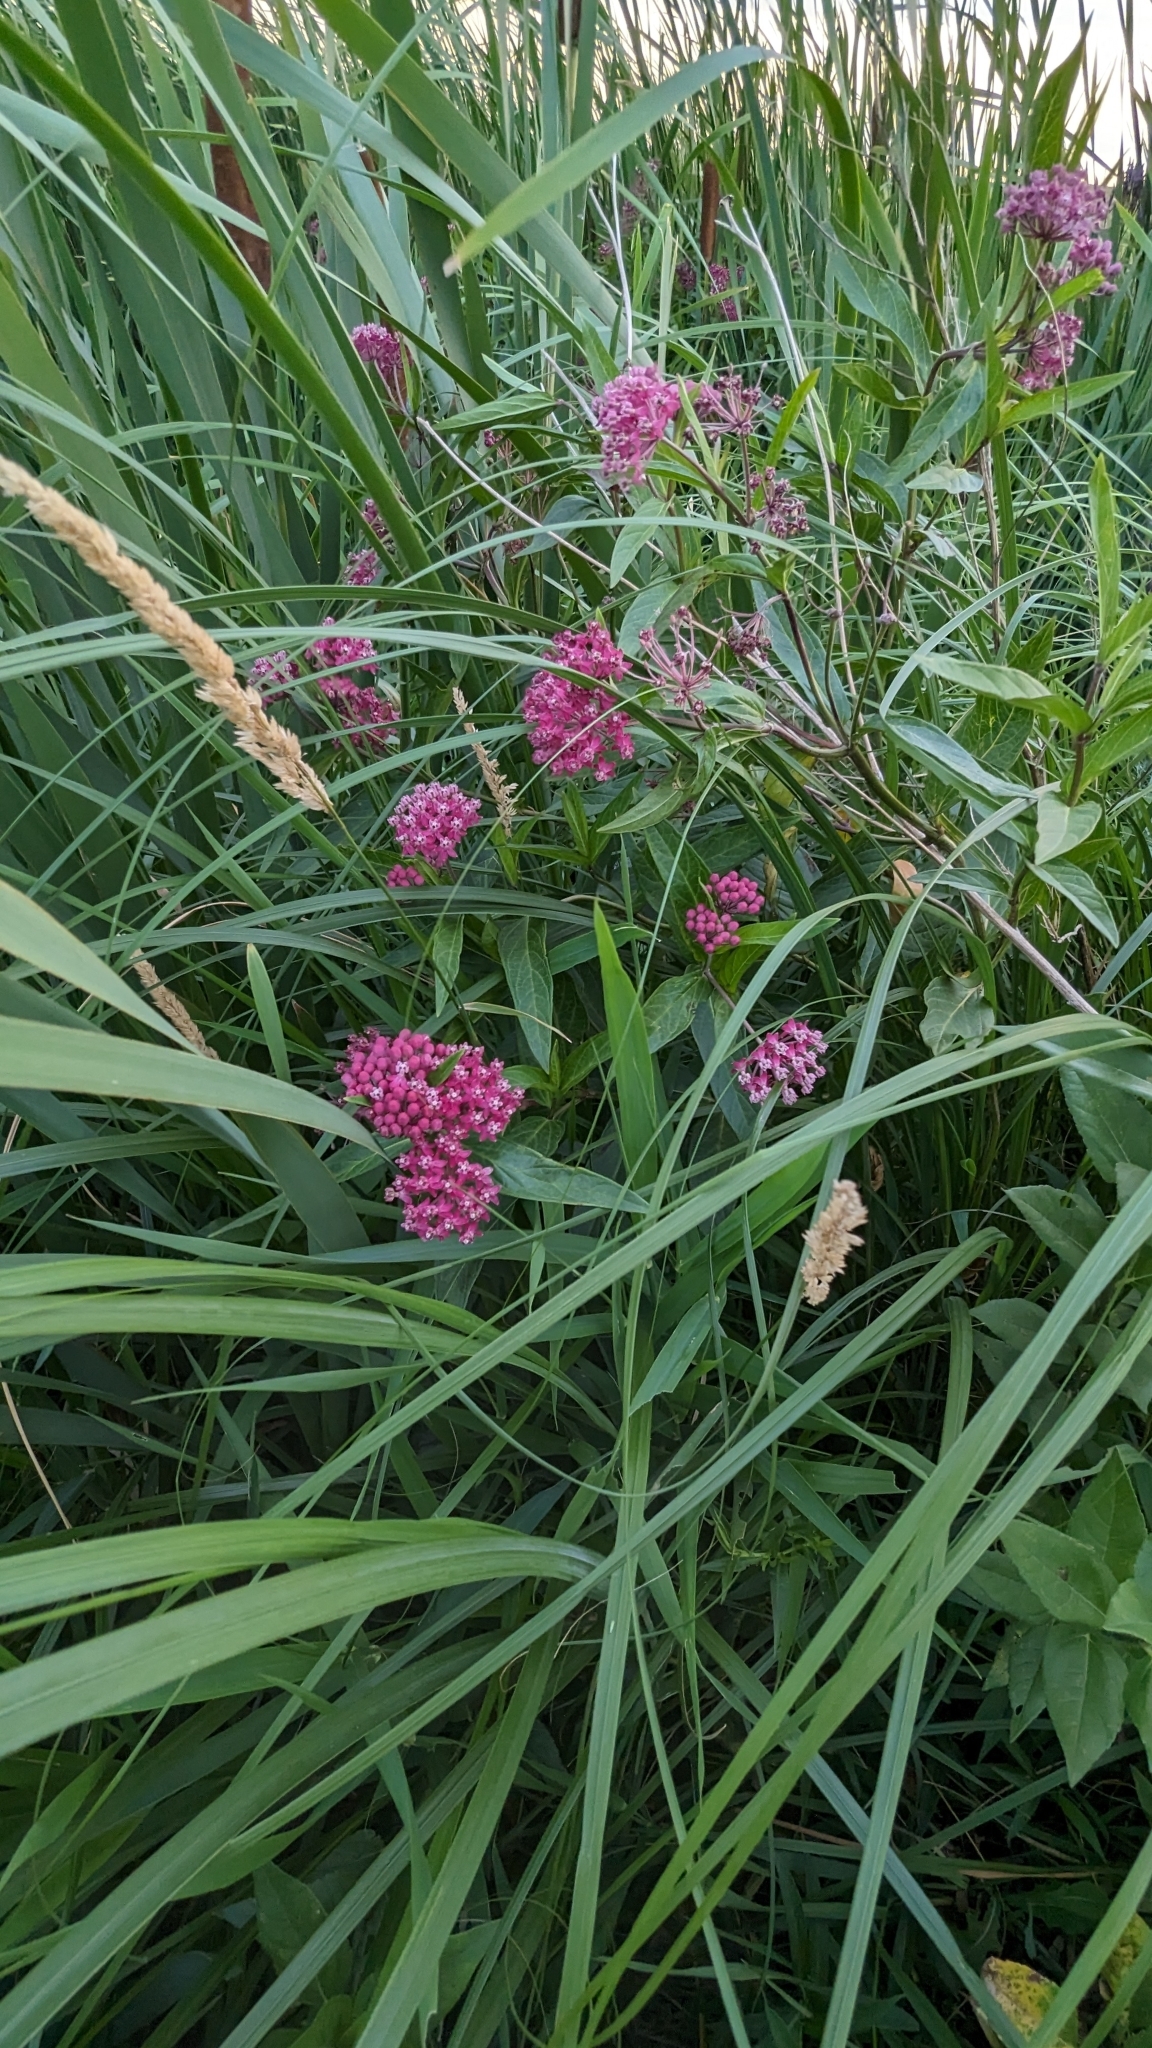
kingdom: Plantae
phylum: Tracheophyta
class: Magnoliopsida
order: Gentianales
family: Apocynaceae
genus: Asclepias
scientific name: Asclepias incarnata
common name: Swamp milkweed
